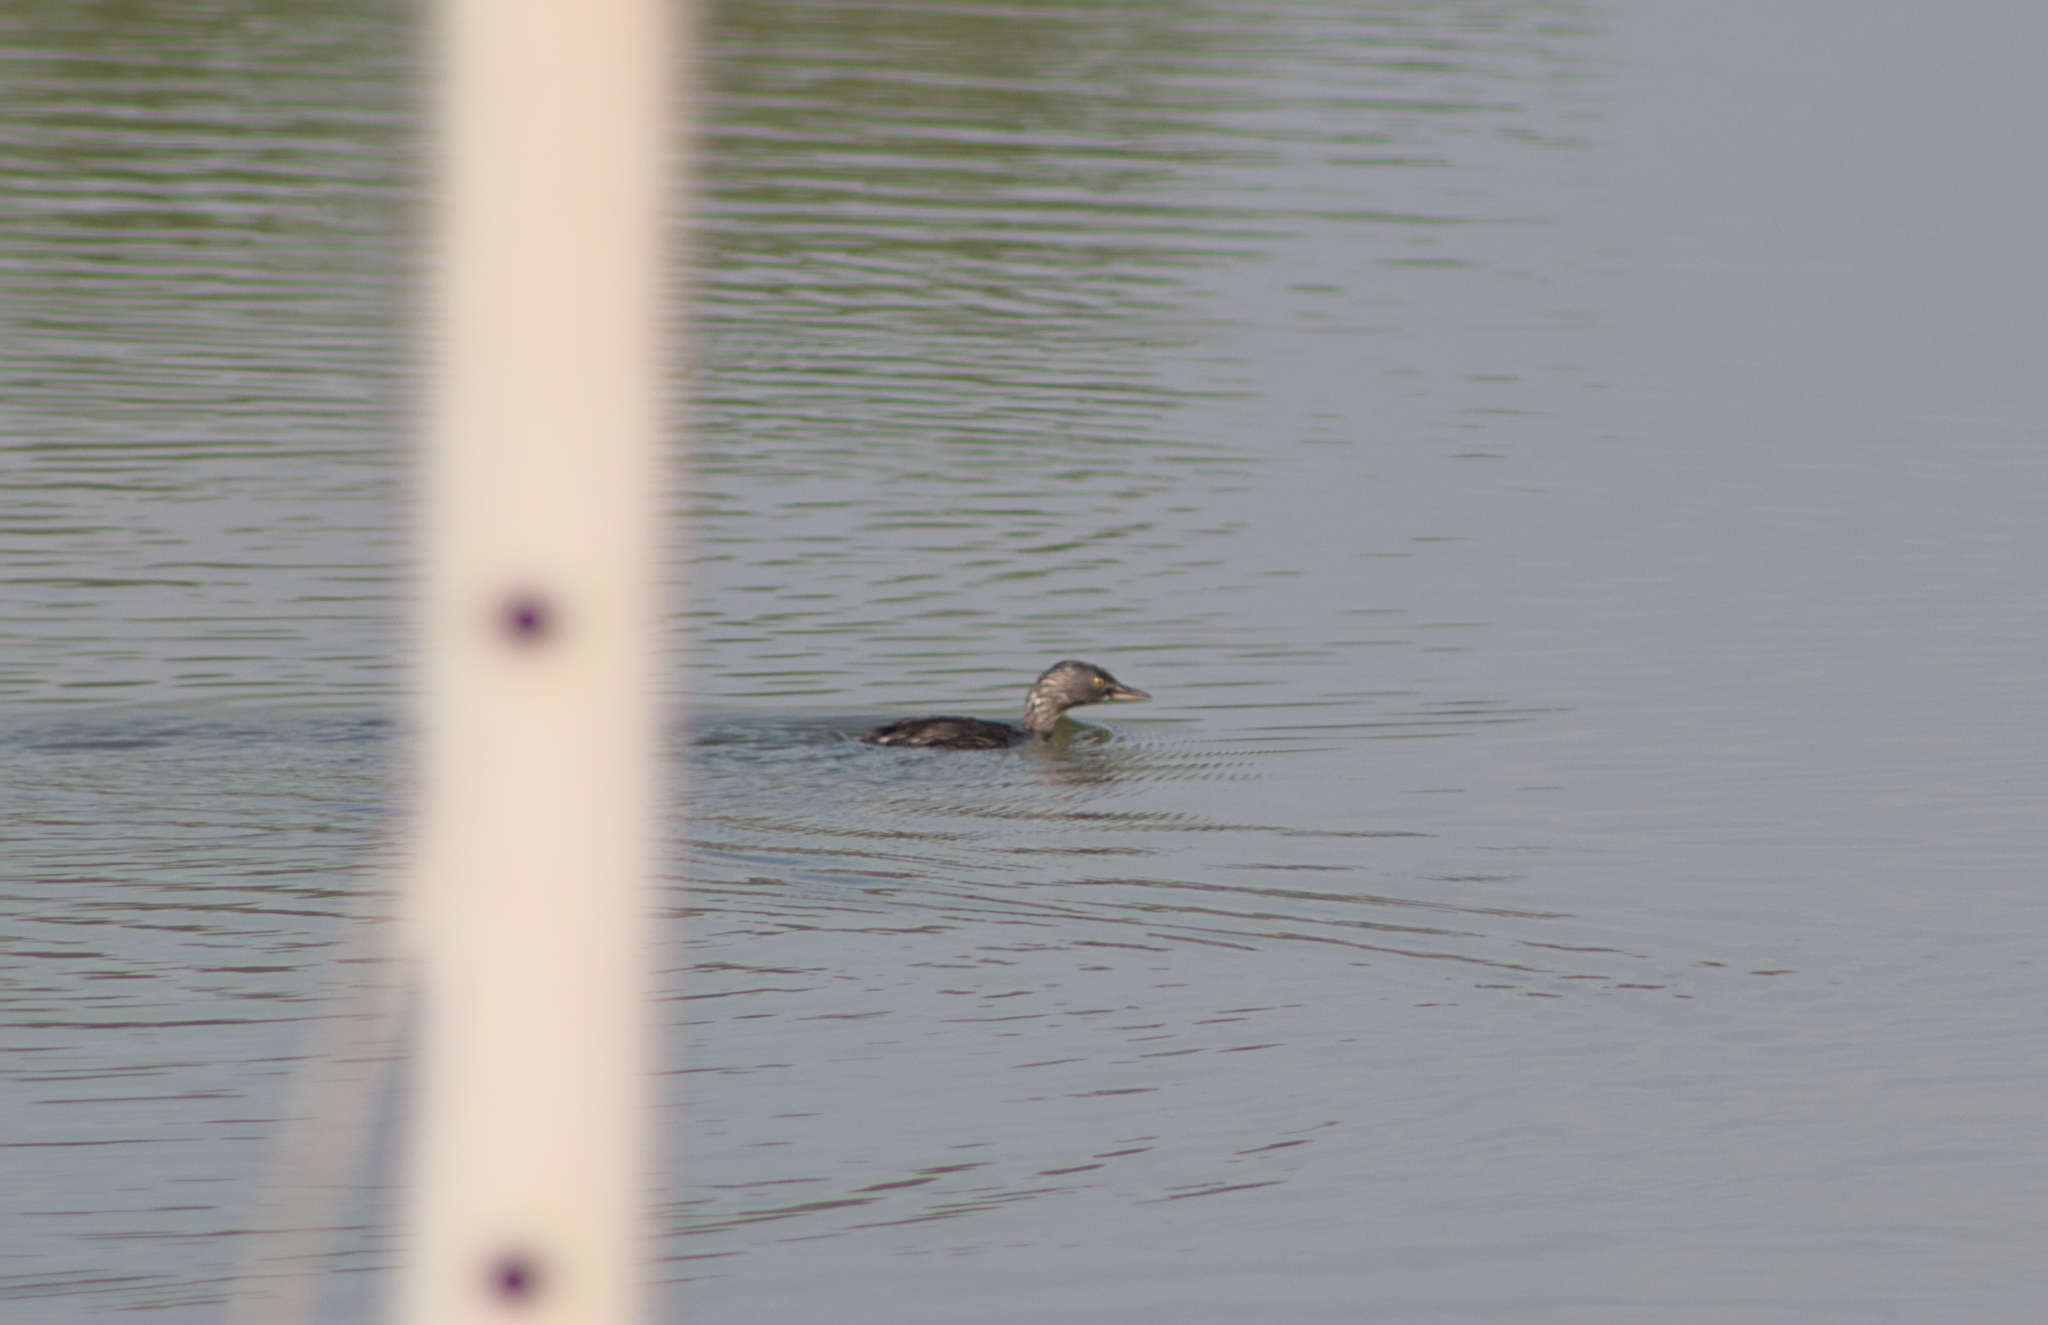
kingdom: Animalia
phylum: Chordata
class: Aves
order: Podicipediformes
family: Podicipedidae
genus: Tachybaptus
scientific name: Tachybaptus dominicus
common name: Least grebe
